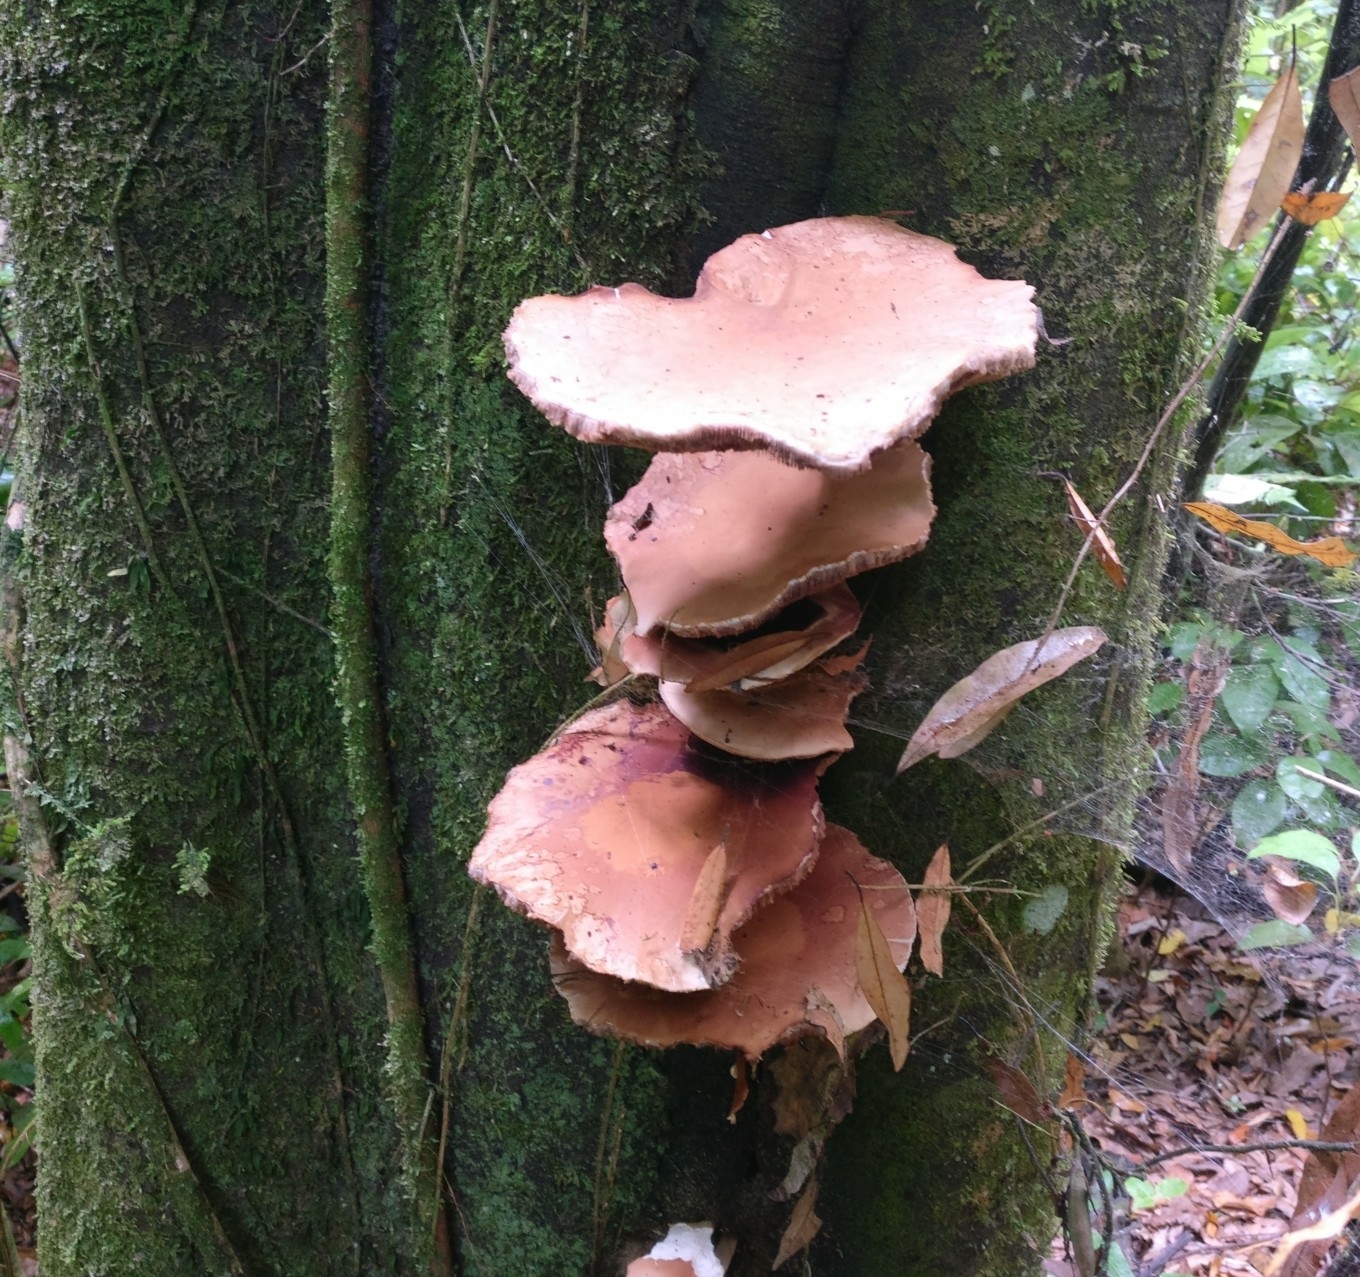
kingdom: Fungi
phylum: Basidiomycota
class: Agaricomycetes
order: Agaricales
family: Tubariaceae
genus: Cyclocybe
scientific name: Cyclocybe parasitica
